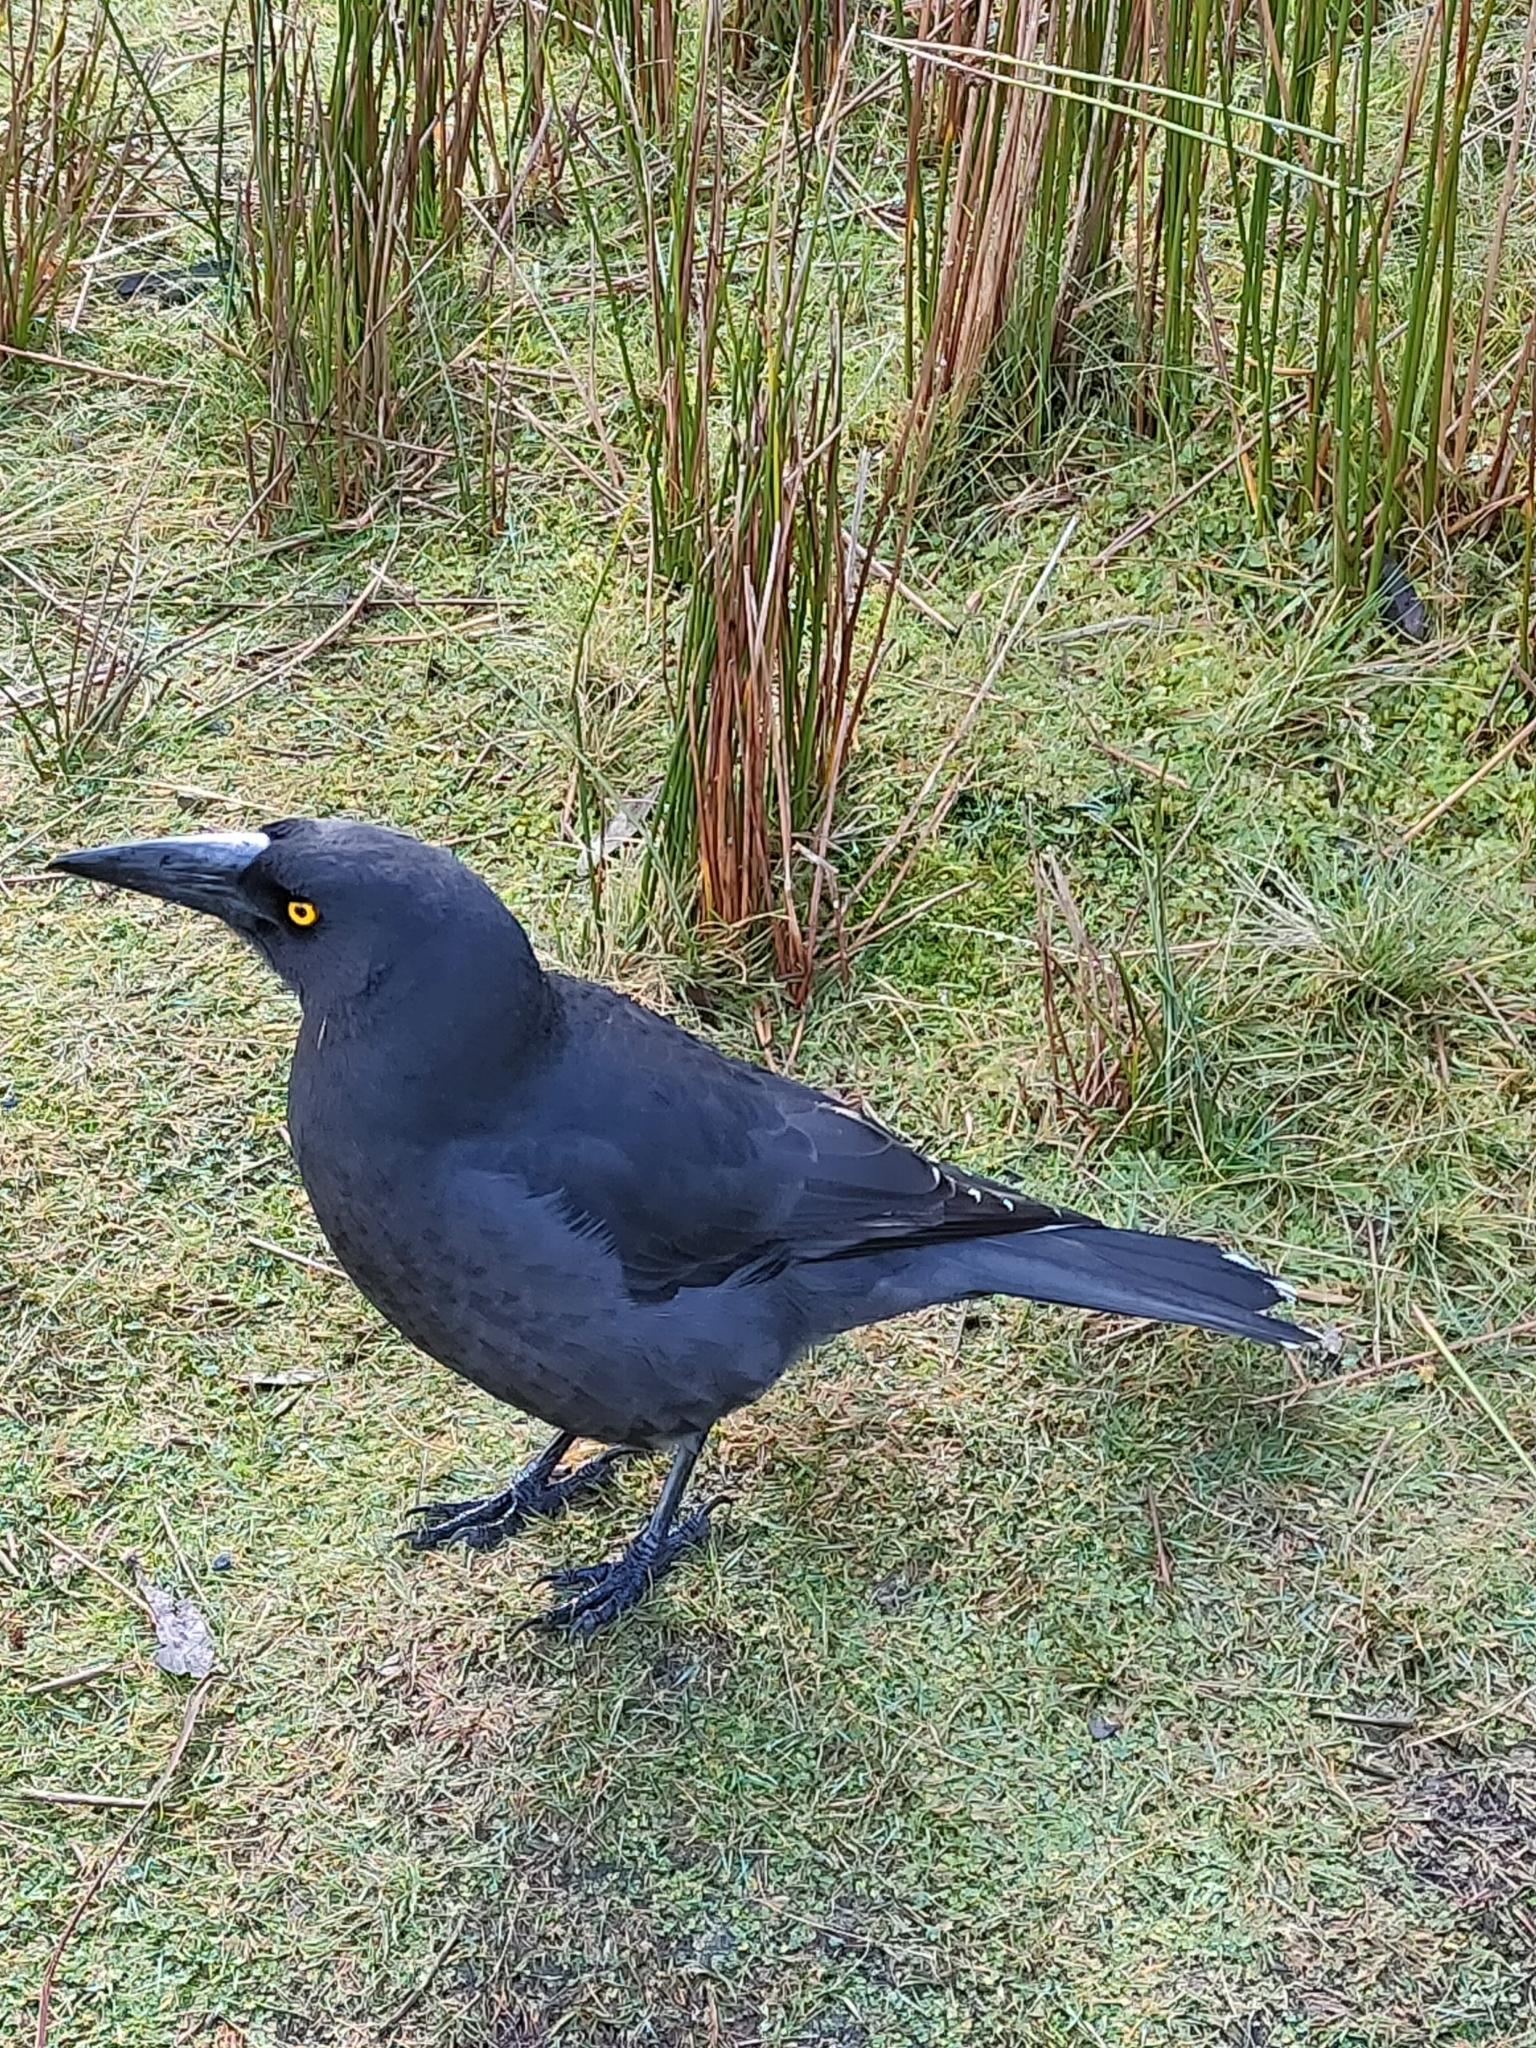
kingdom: Animalia
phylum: Chordata
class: Aves
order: Passeriformes
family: Cracticidae
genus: Strepera
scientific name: Strepera fuliginosa
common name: Black currawong
